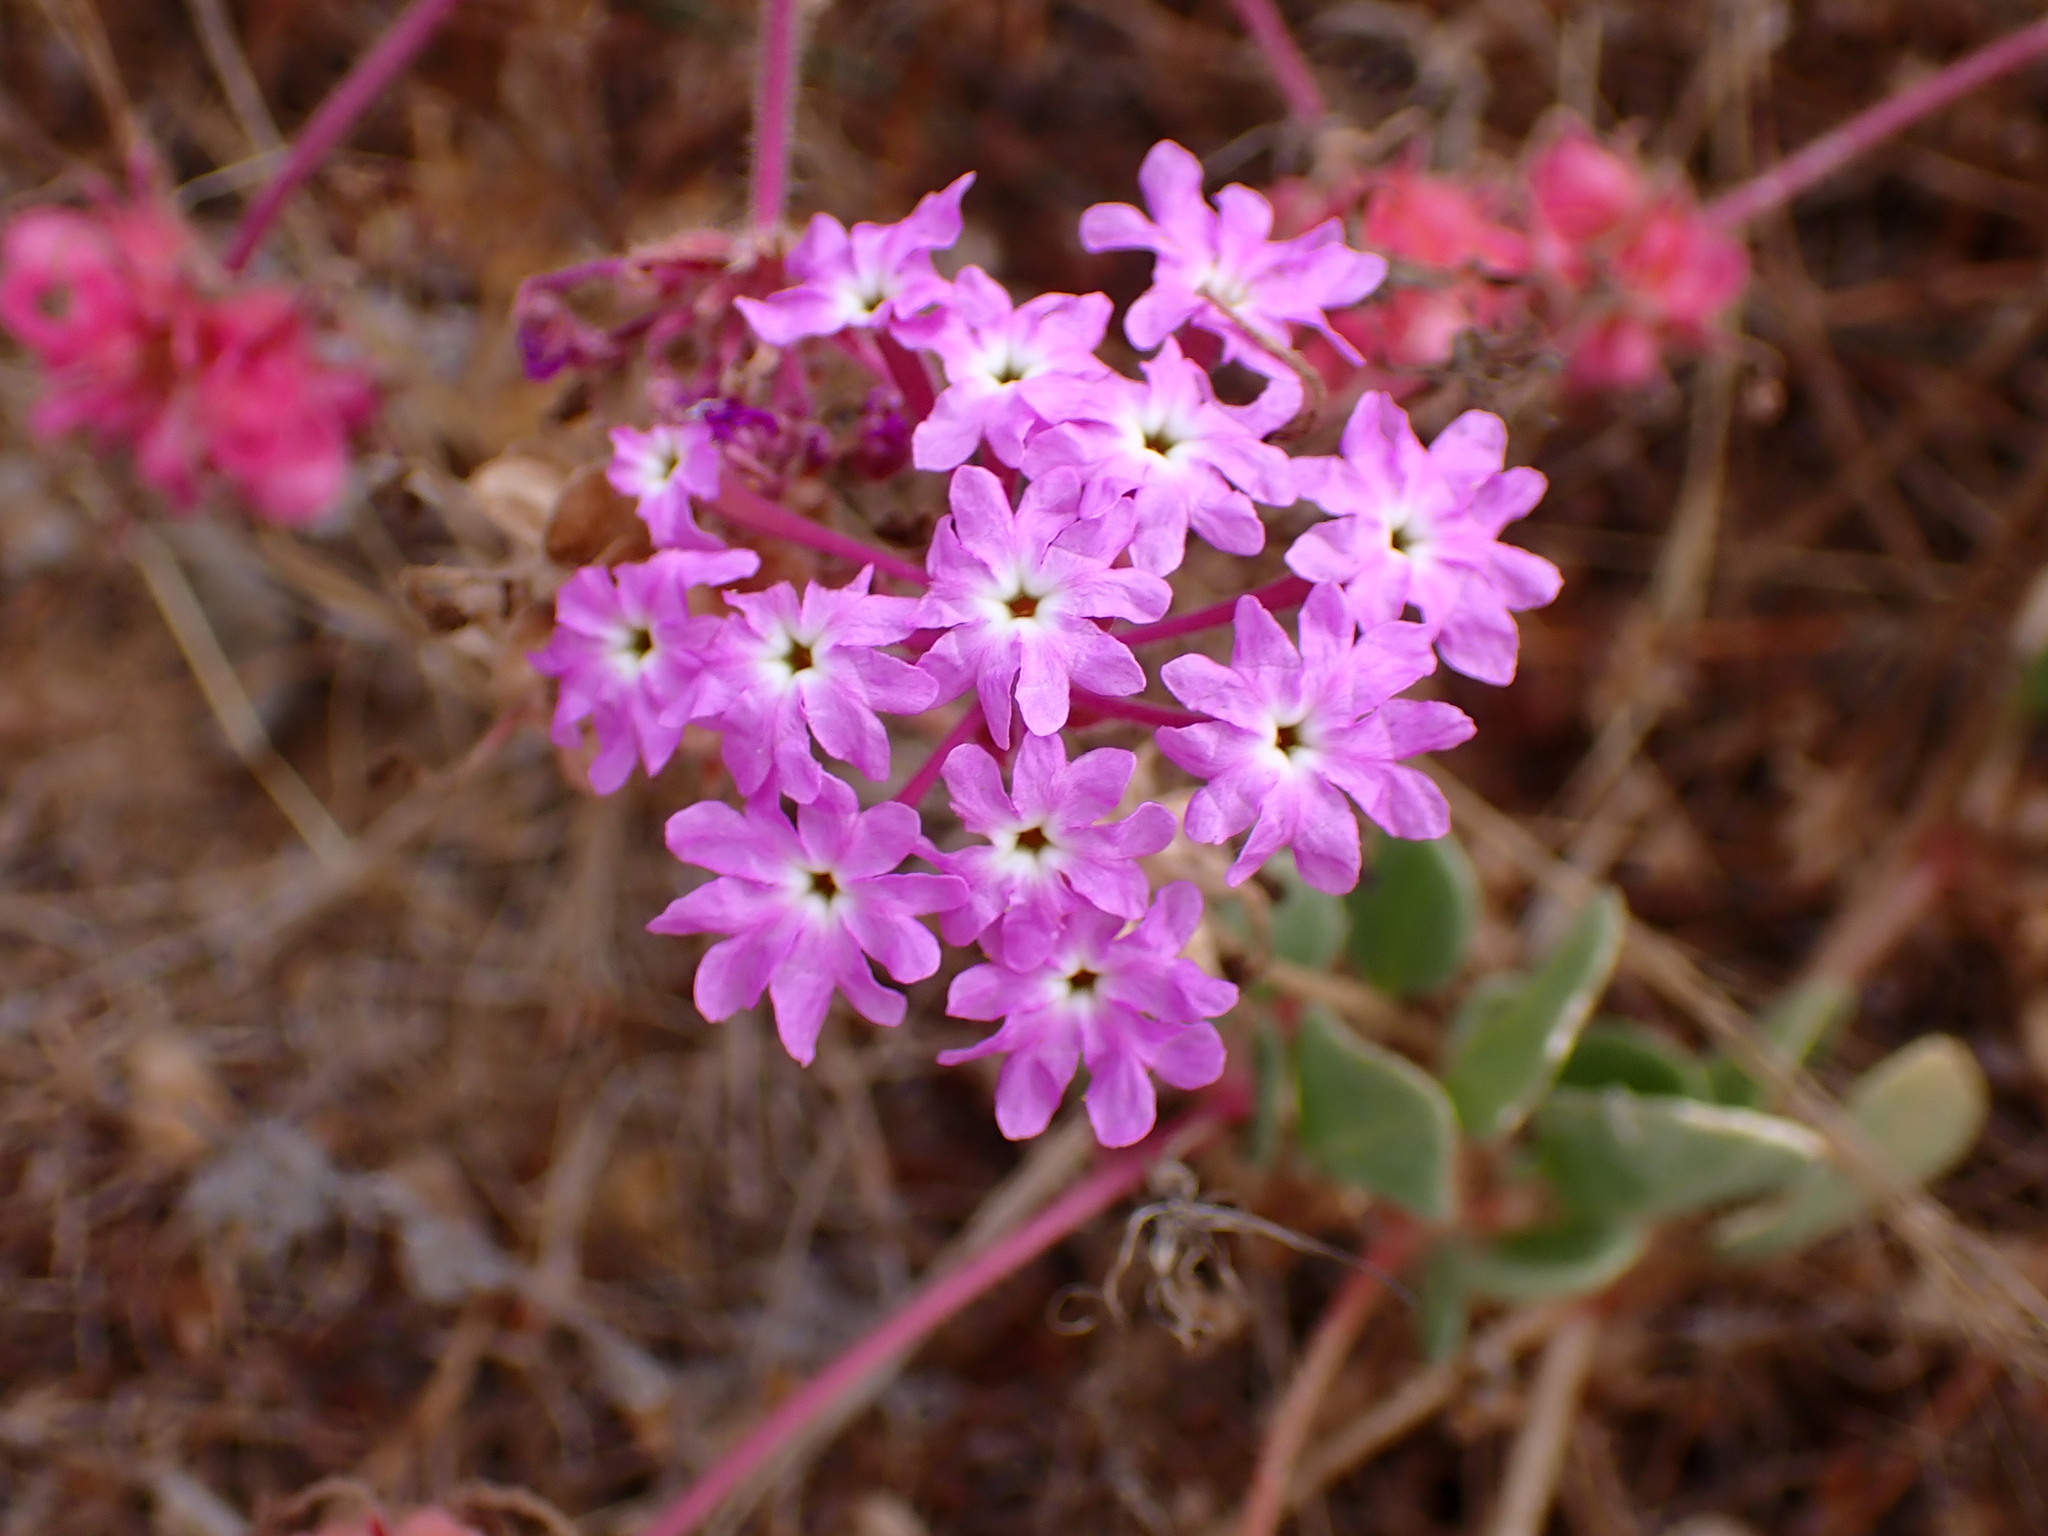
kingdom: Plantae
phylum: Tracheophyta
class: Magnoliopsida
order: Caryophyllales
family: Nyctaginaceae
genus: Abronia
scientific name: Abronia umbellata
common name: Sand-verbena
